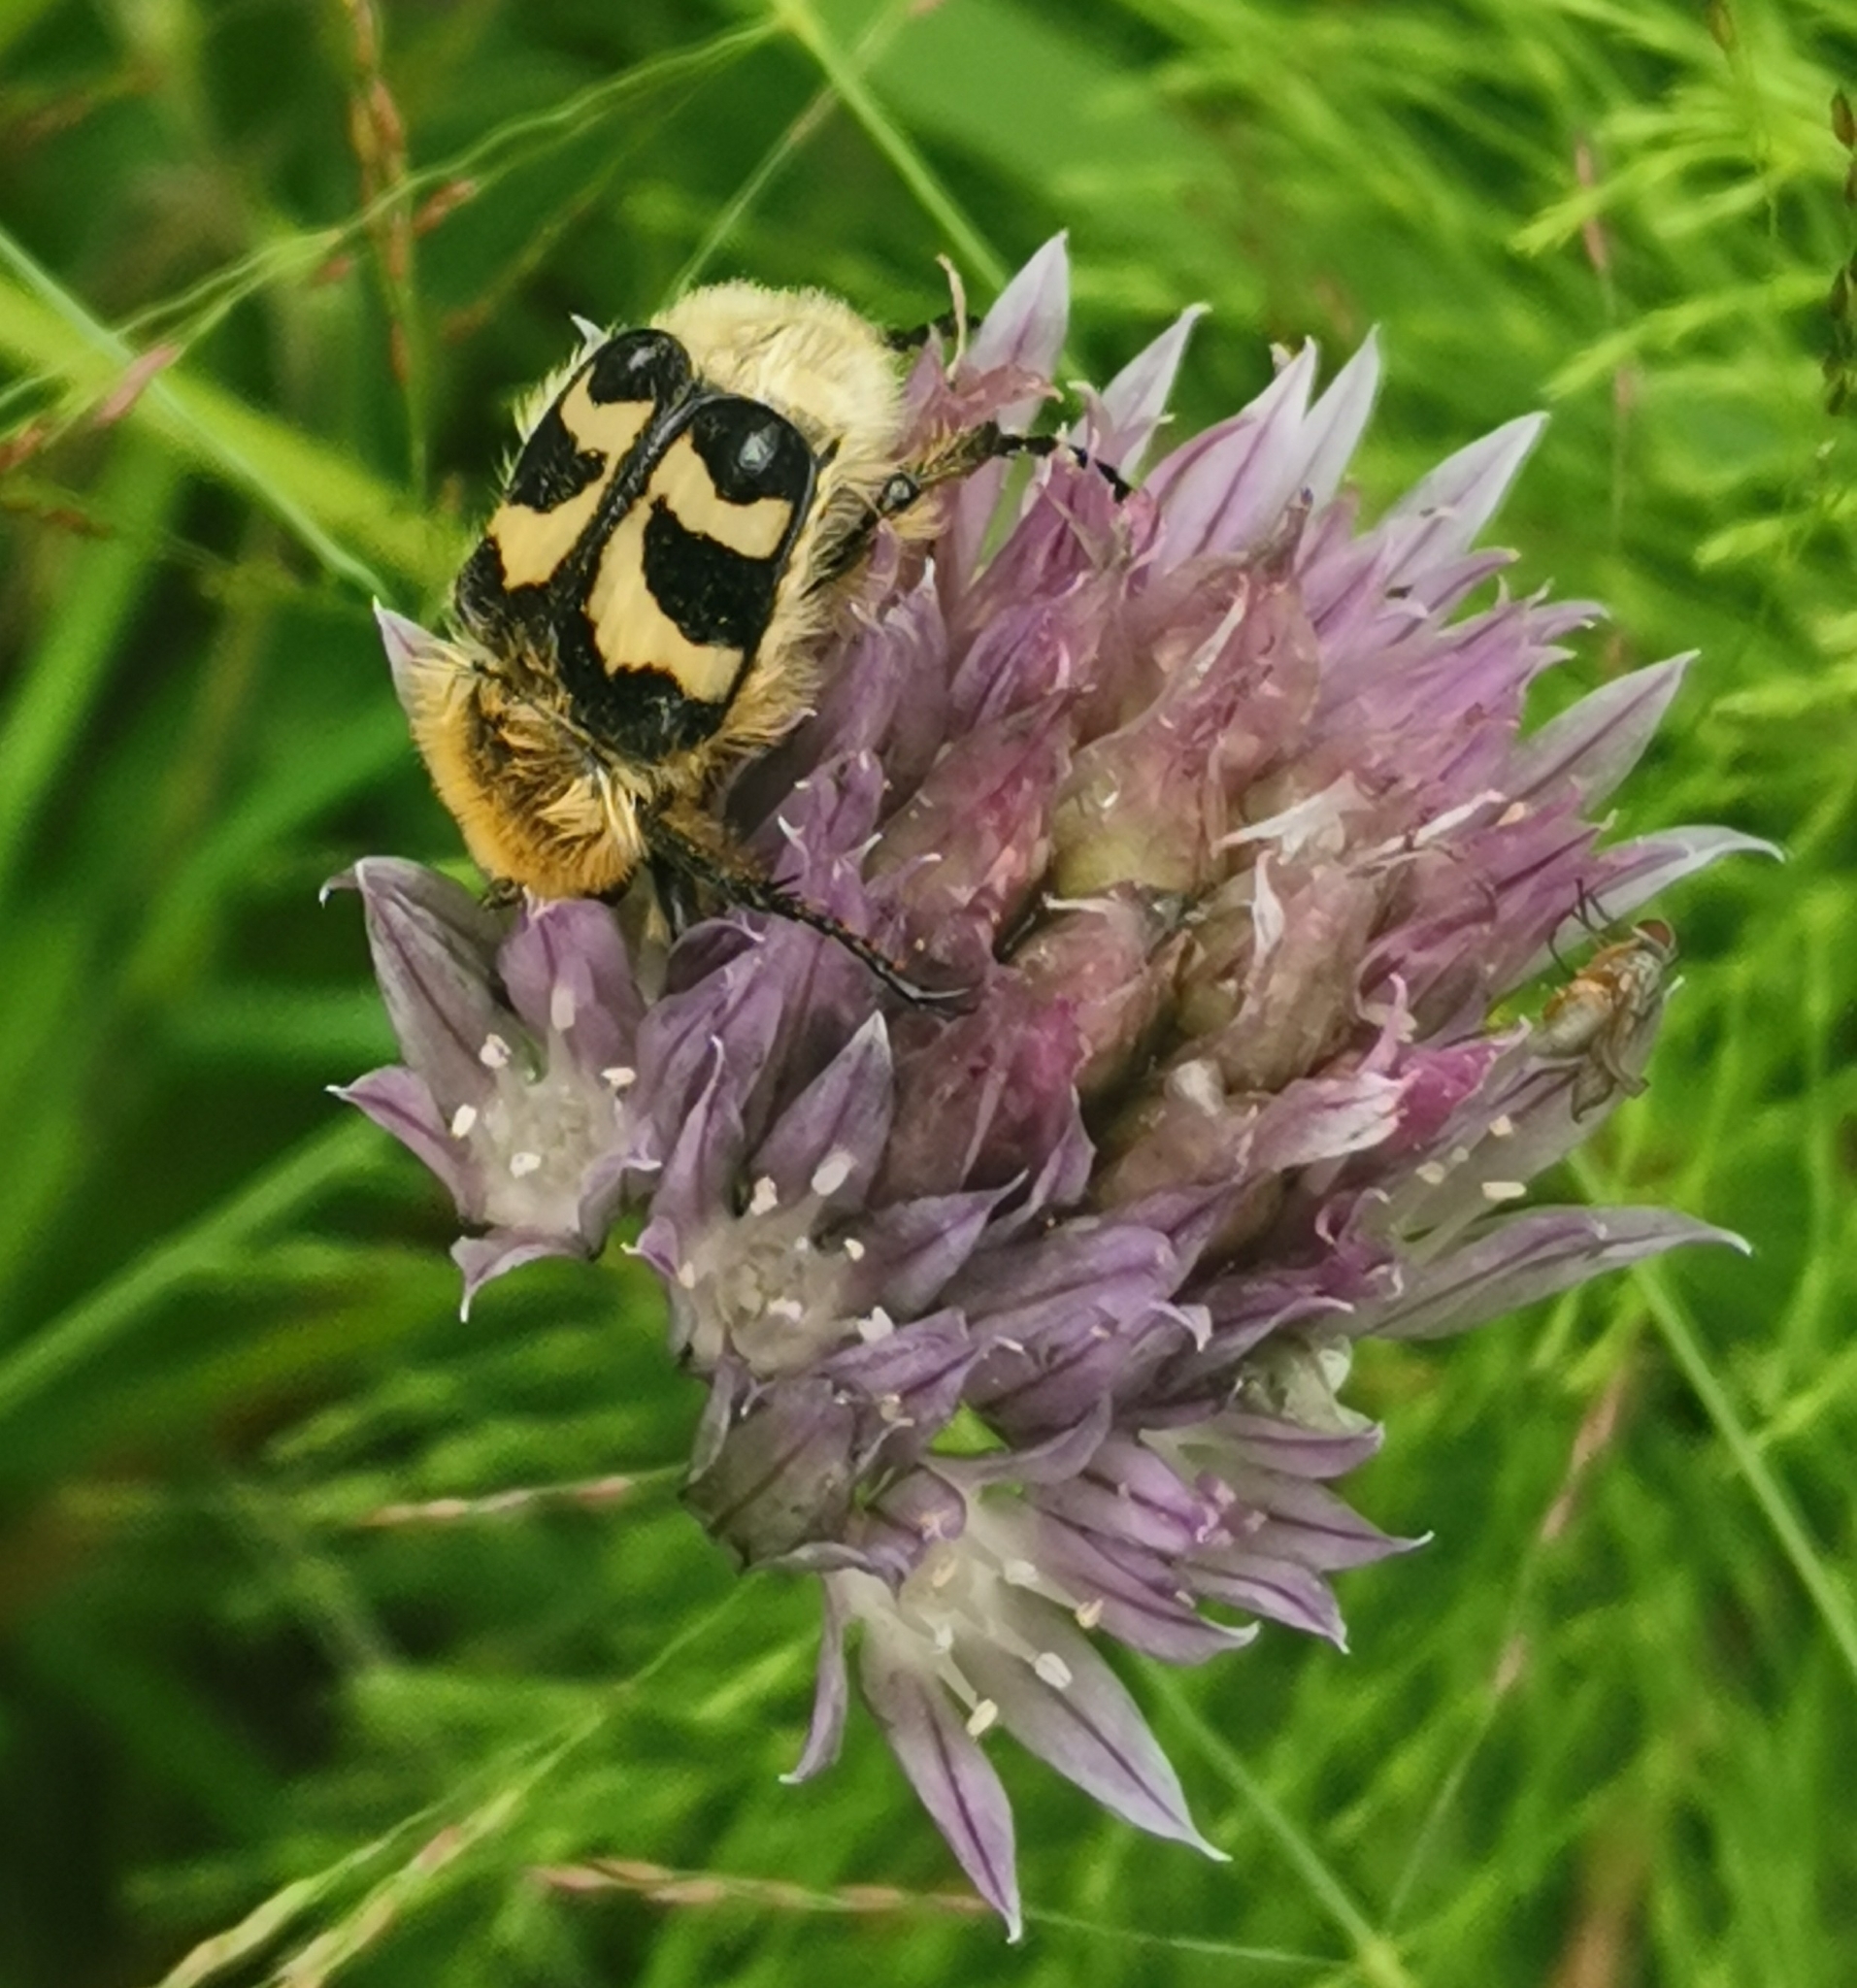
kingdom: Animalia
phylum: Arthropoda
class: Insecta
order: Coleoptera
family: Scarabaeidae
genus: Trichius
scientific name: Trichius fasciatus
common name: Bee beetle
